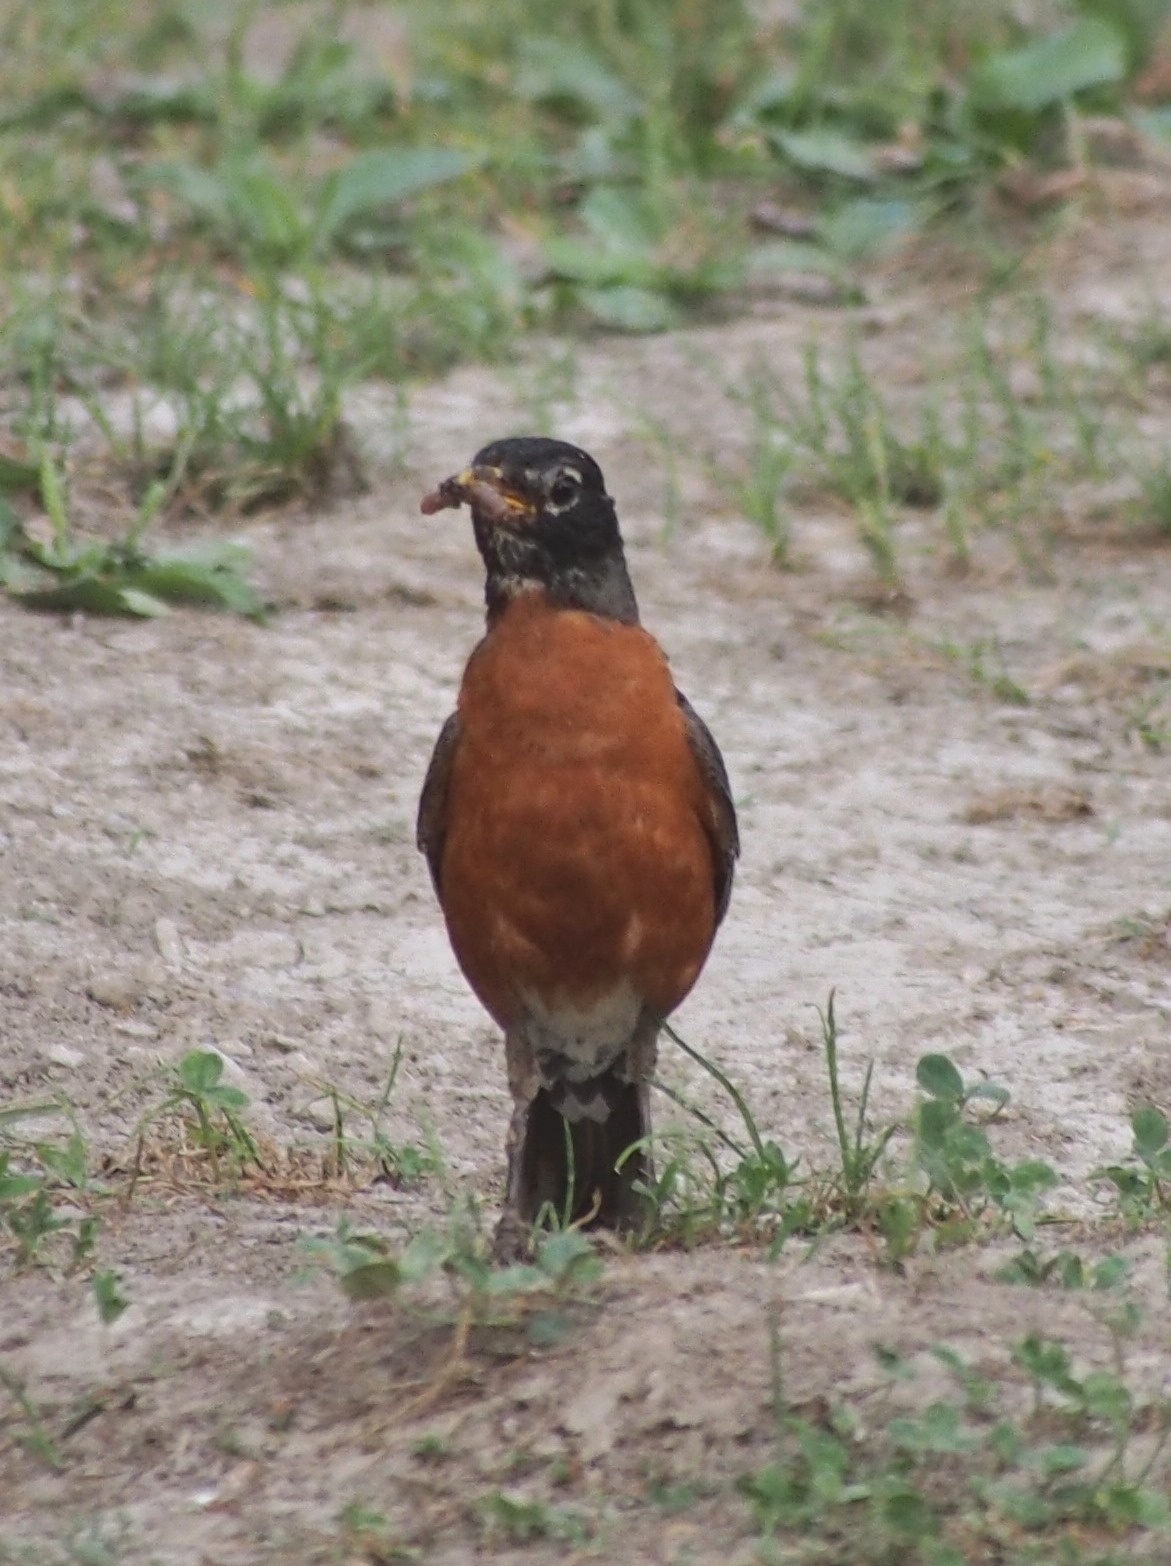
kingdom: Animalia
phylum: Chordata
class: Aves
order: Passeriformes
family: Turdidae
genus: Turdus
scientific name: Turdus migratorius
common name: American robin
